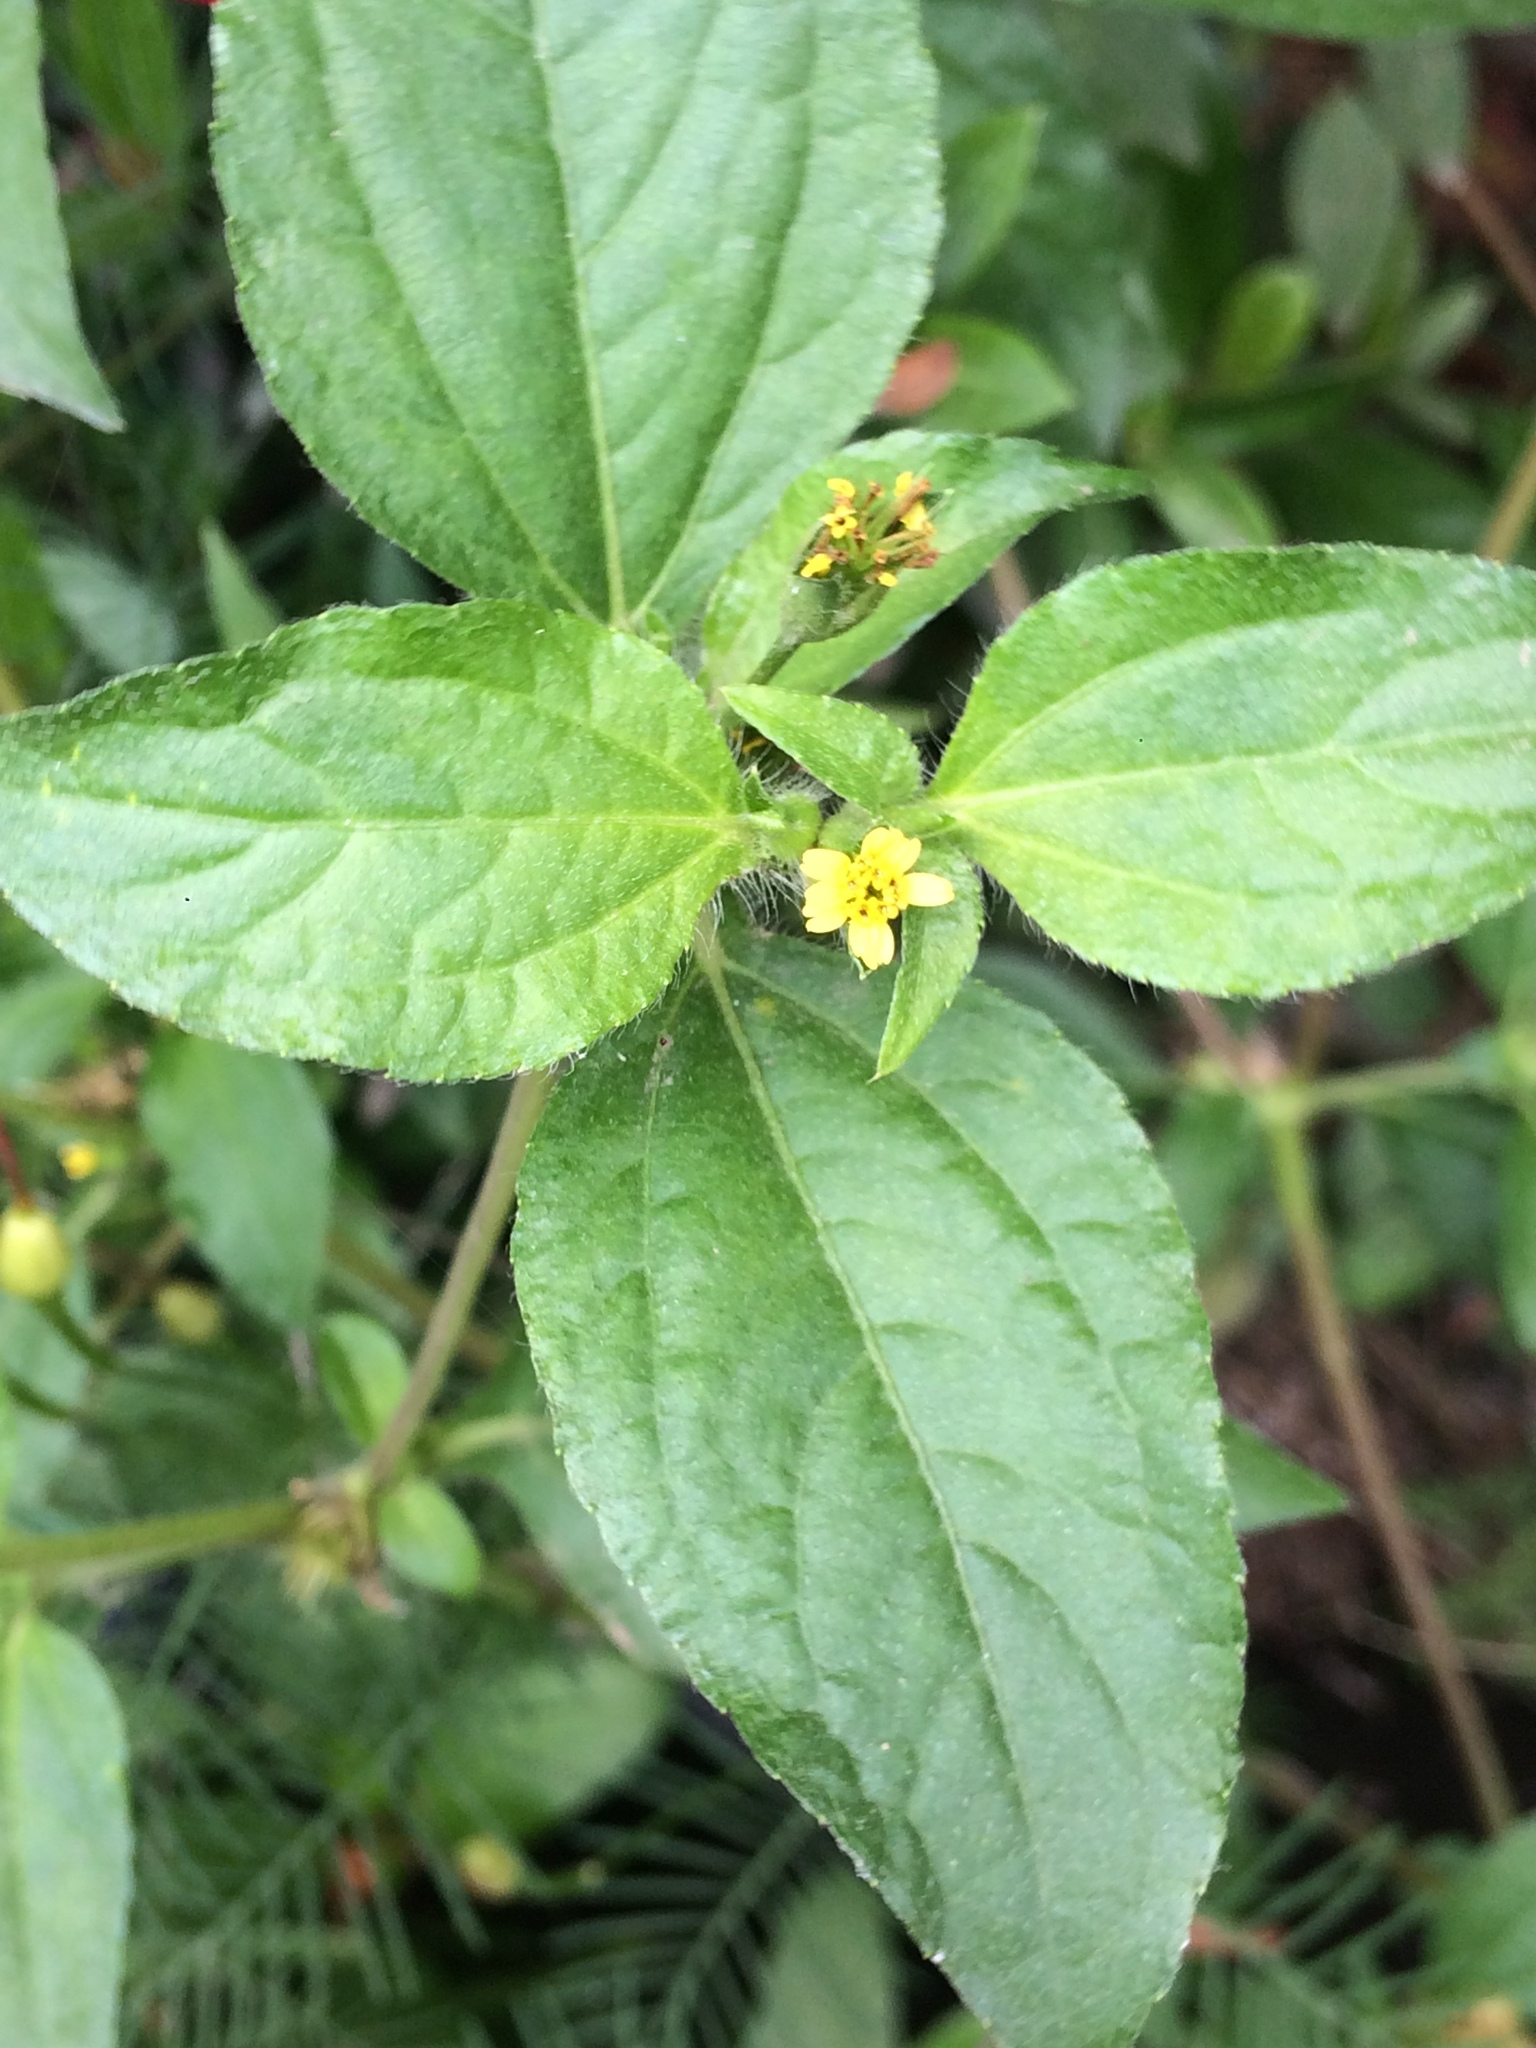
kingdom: Plantae
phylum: Tracheophyta
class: Magnoliopsida
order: Asterales
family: Asteraceae
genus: Synedrella
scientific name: Synedrella nodiflora
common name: Nodeweed
